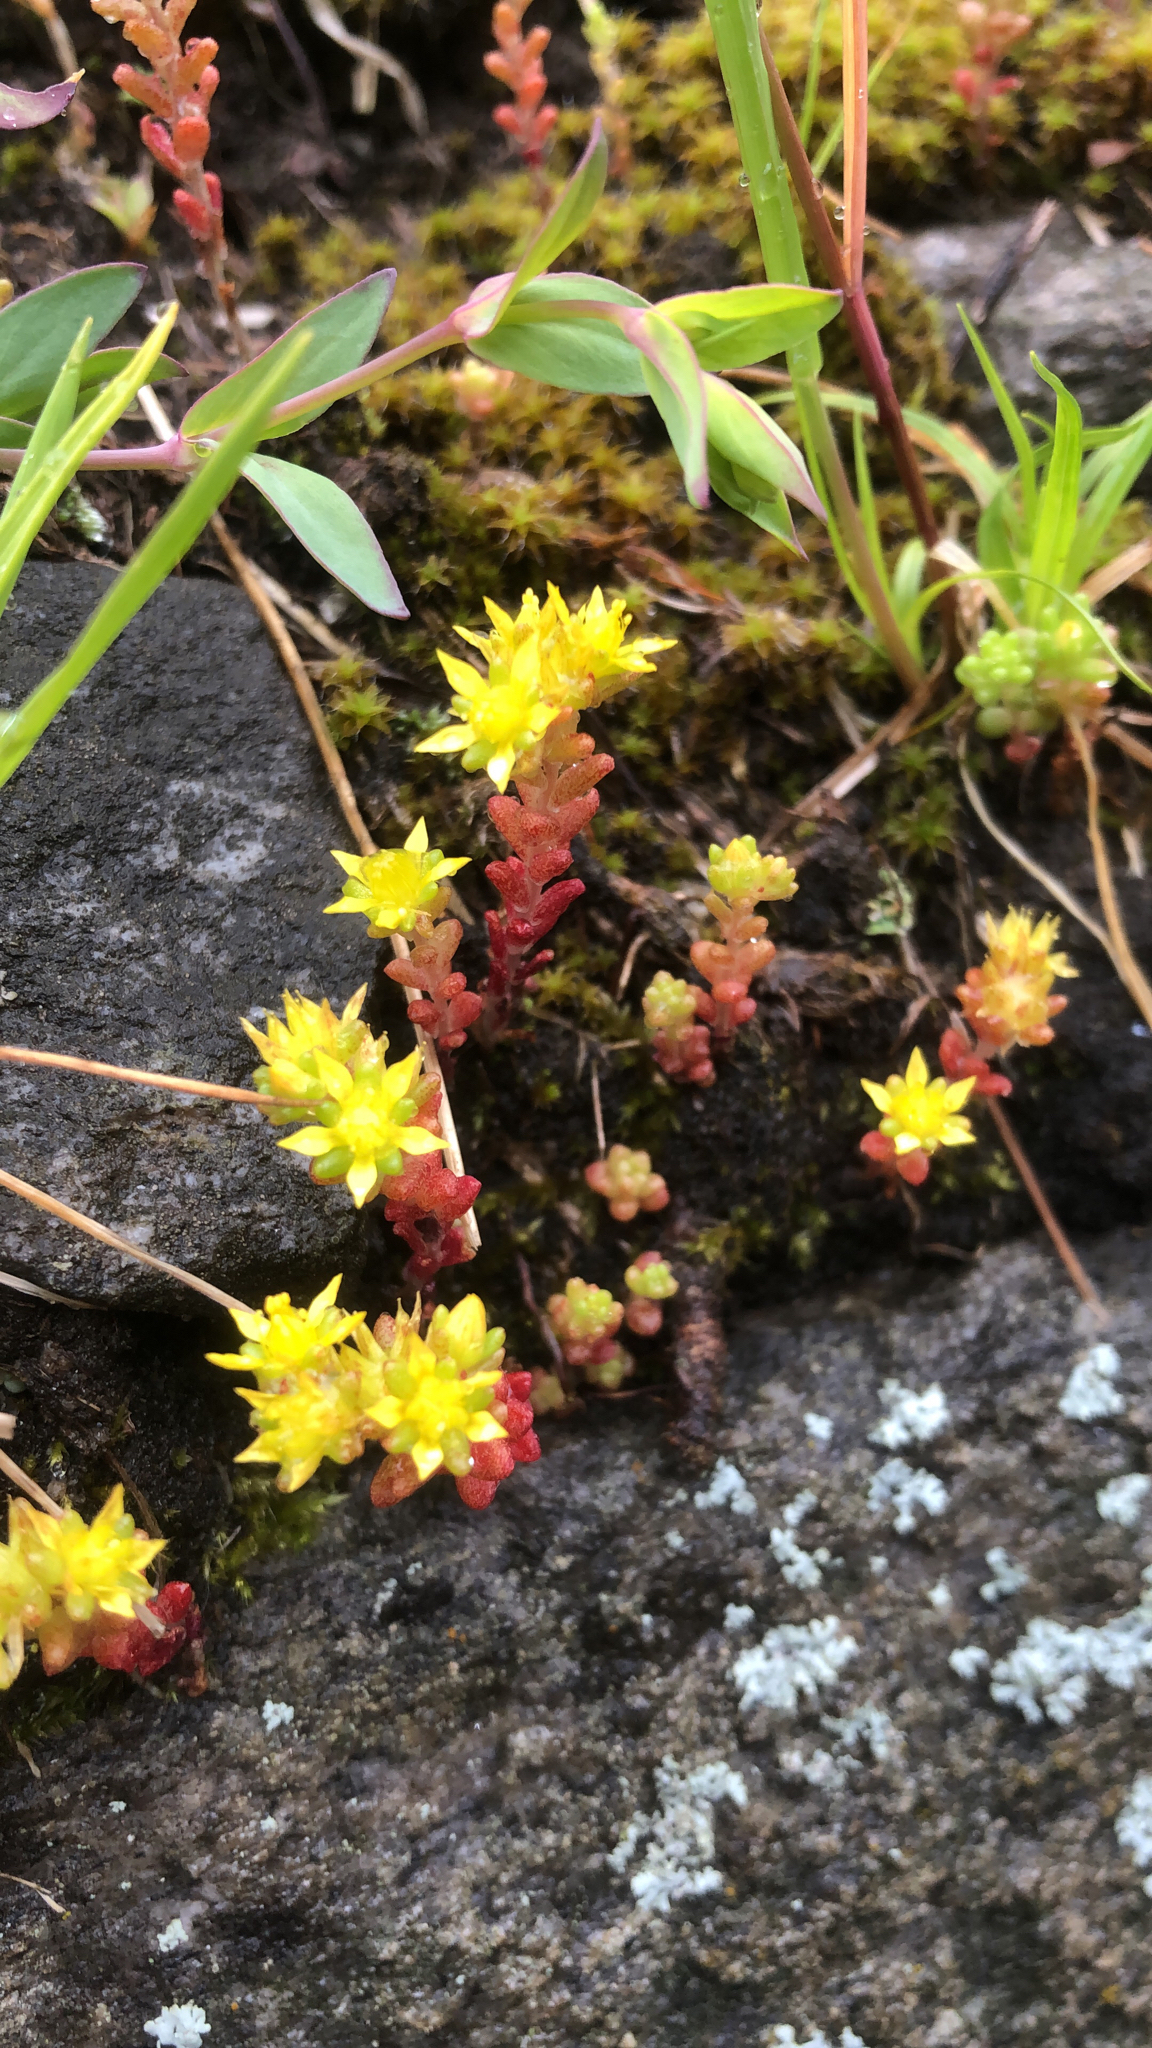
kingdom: Plantae
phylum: Tracheophyta
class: Magnoliopsida
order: Saxifragales
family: Crassulaceae
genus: Sedum
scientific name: Sedum annuum
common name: Annual stonecrop
